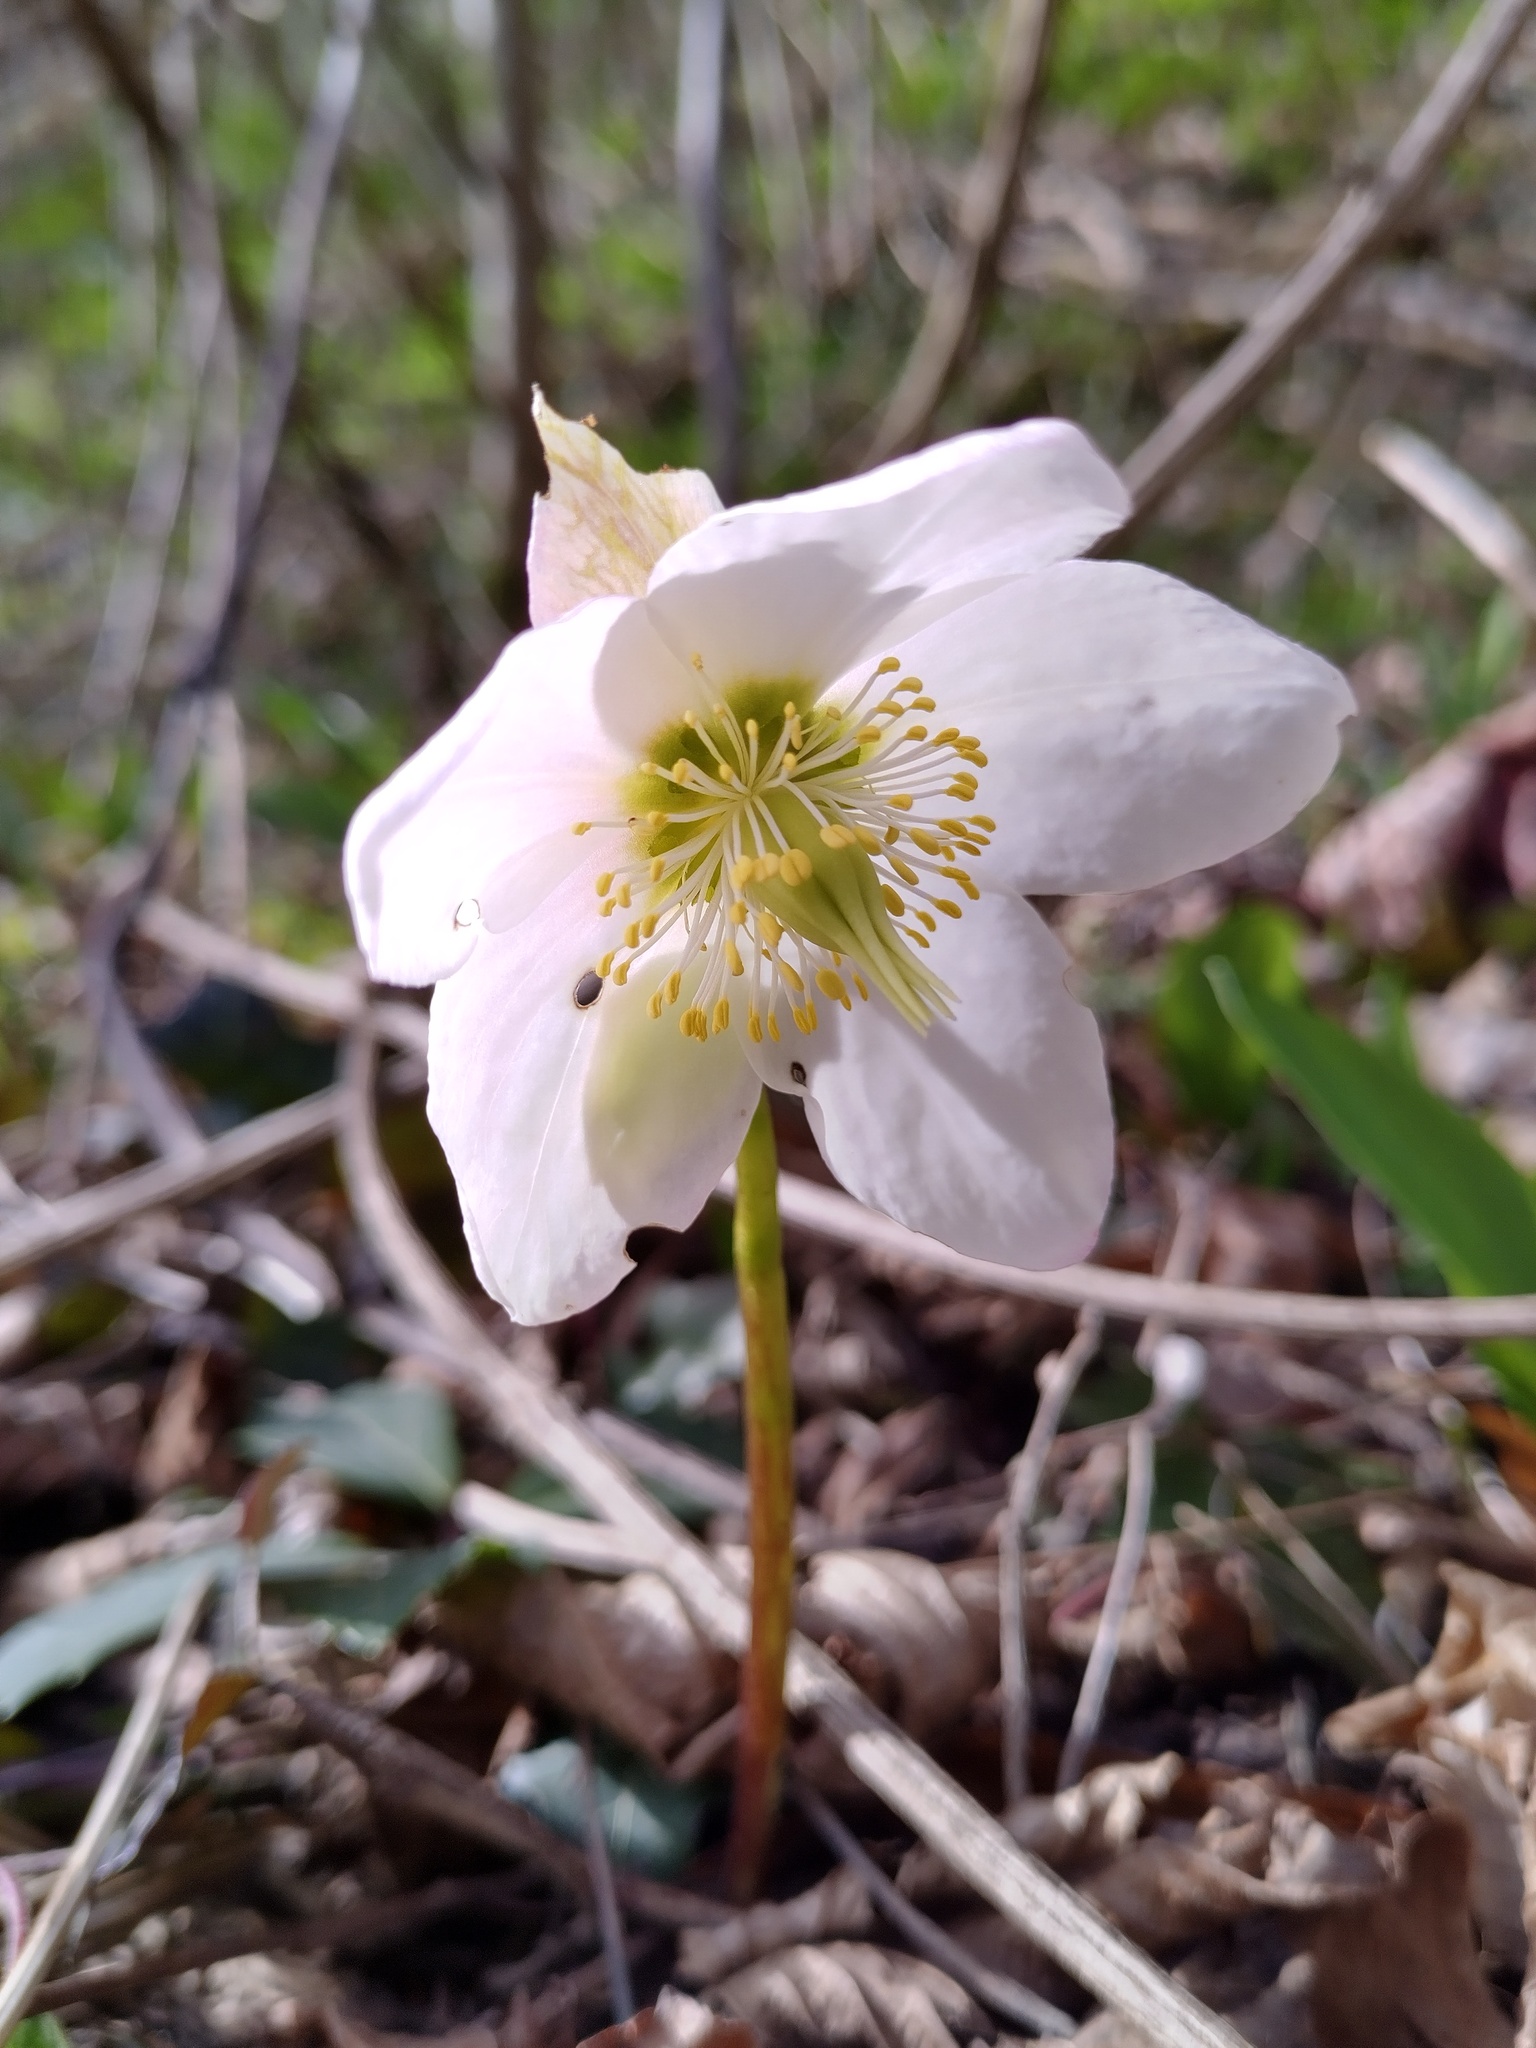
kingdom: Plantae
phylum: Tracheophyta
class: Magnoliopsida
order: Ranunculales
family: Ranunculaceae
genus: Helleborus
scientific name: Helleborus niger
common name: Black hellebore
